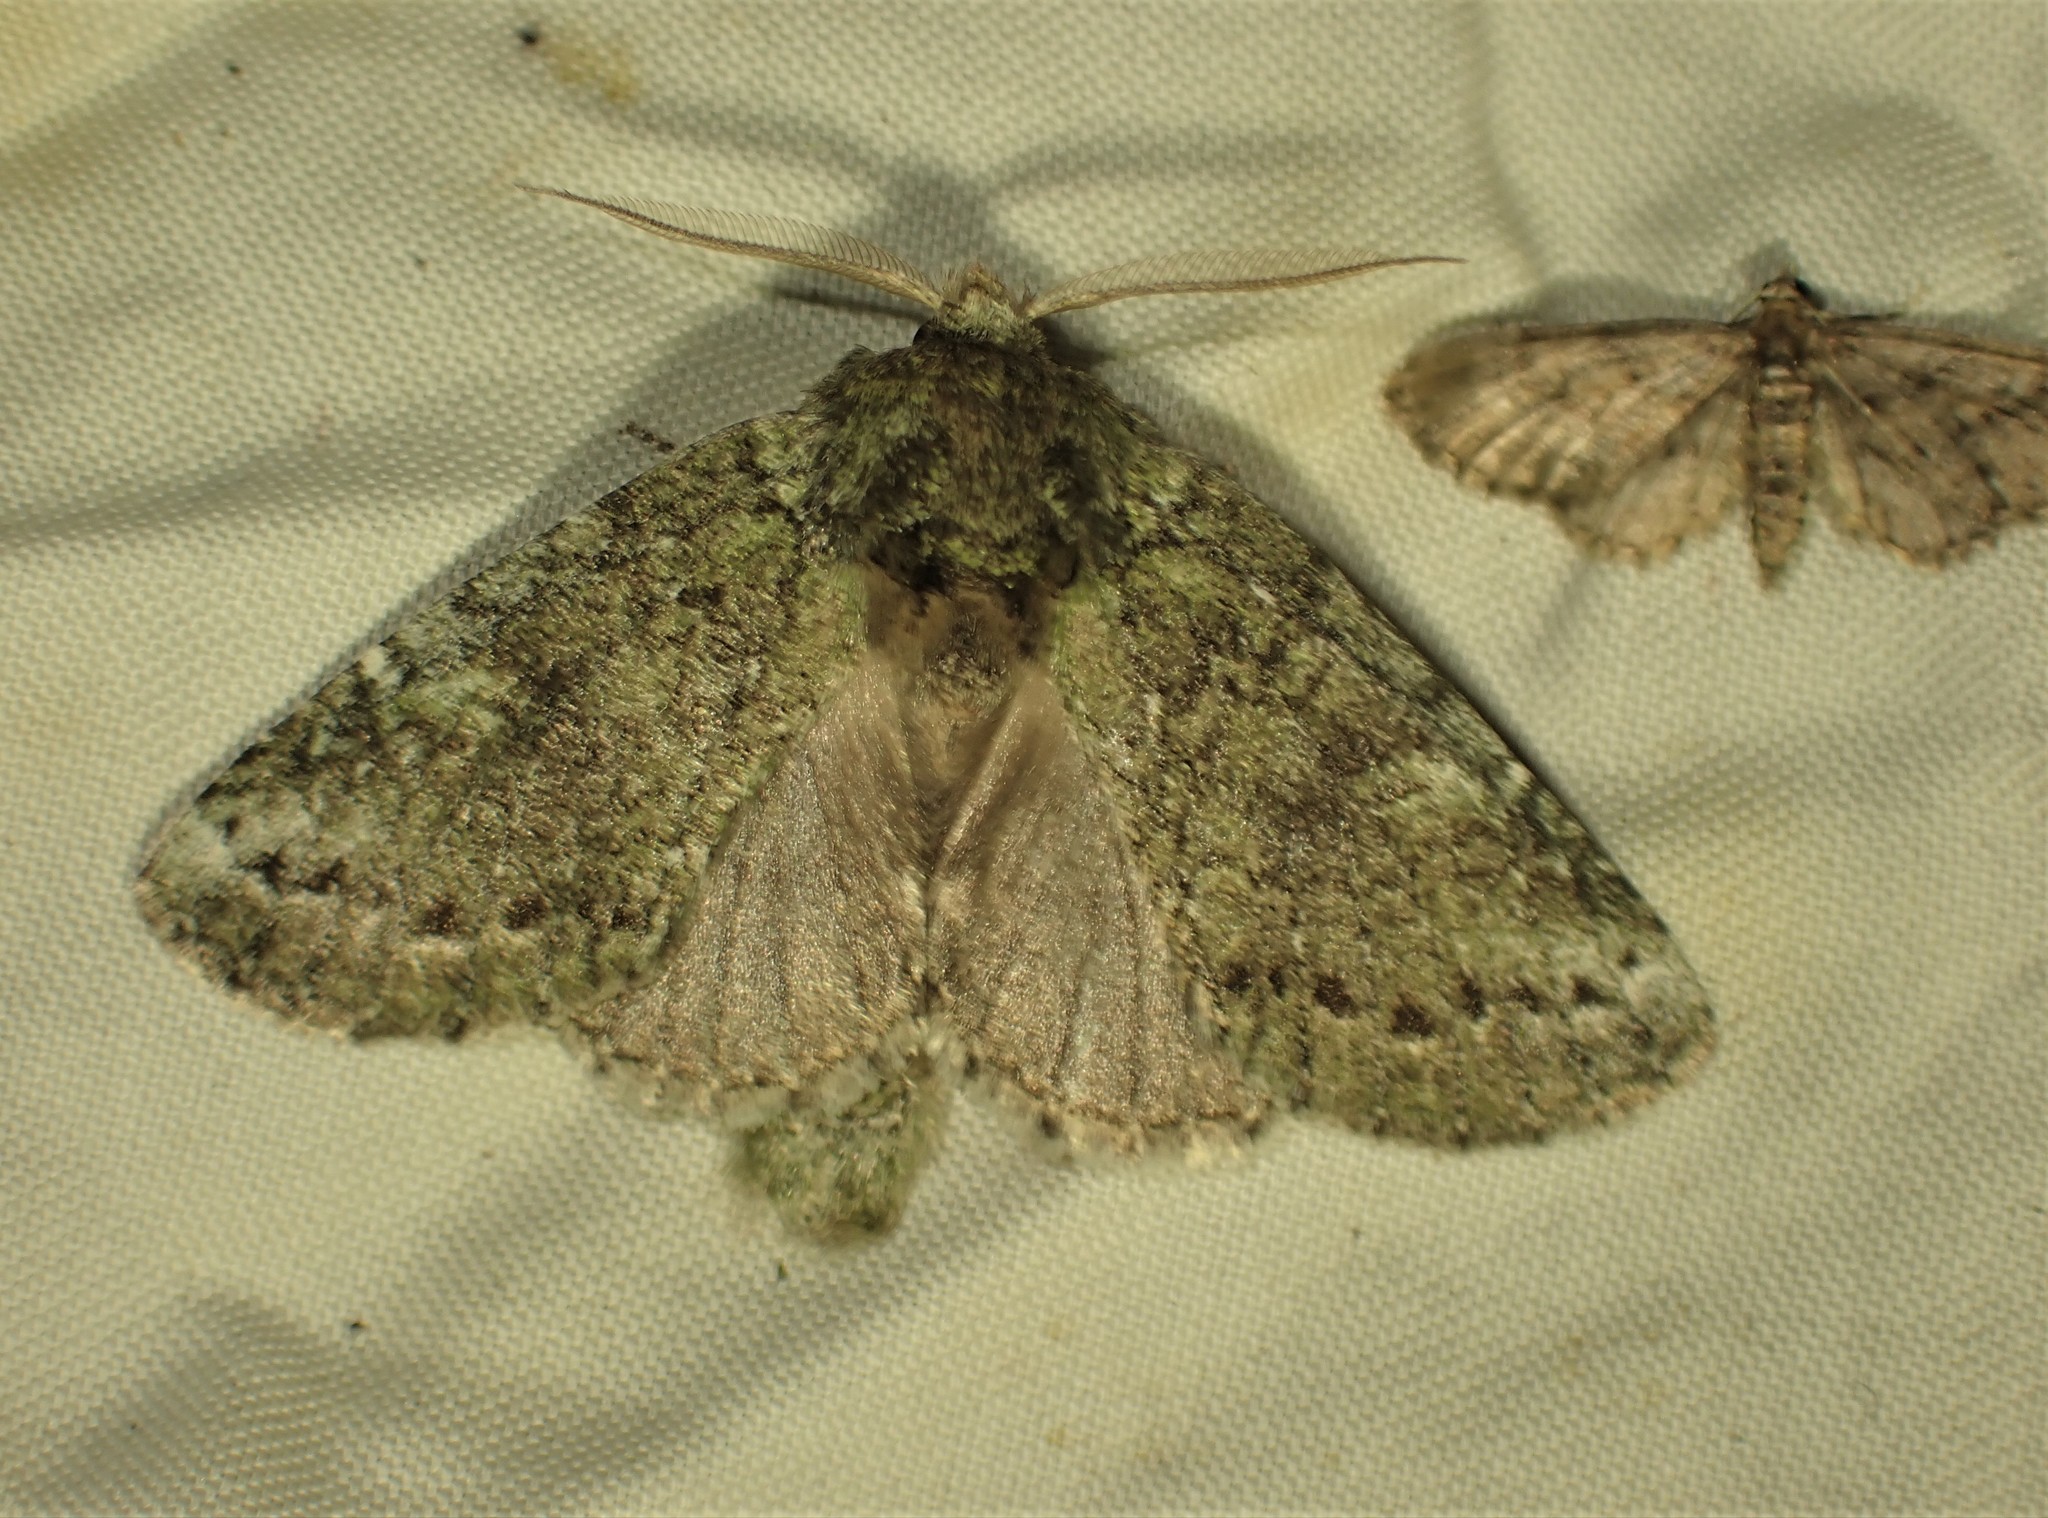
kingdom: Animalia
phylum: Arthropoda
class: Insecta
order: Lepidoptera
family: Notodontidae
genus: Disphragis
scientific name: Disphragis Cecrita guttivitta
